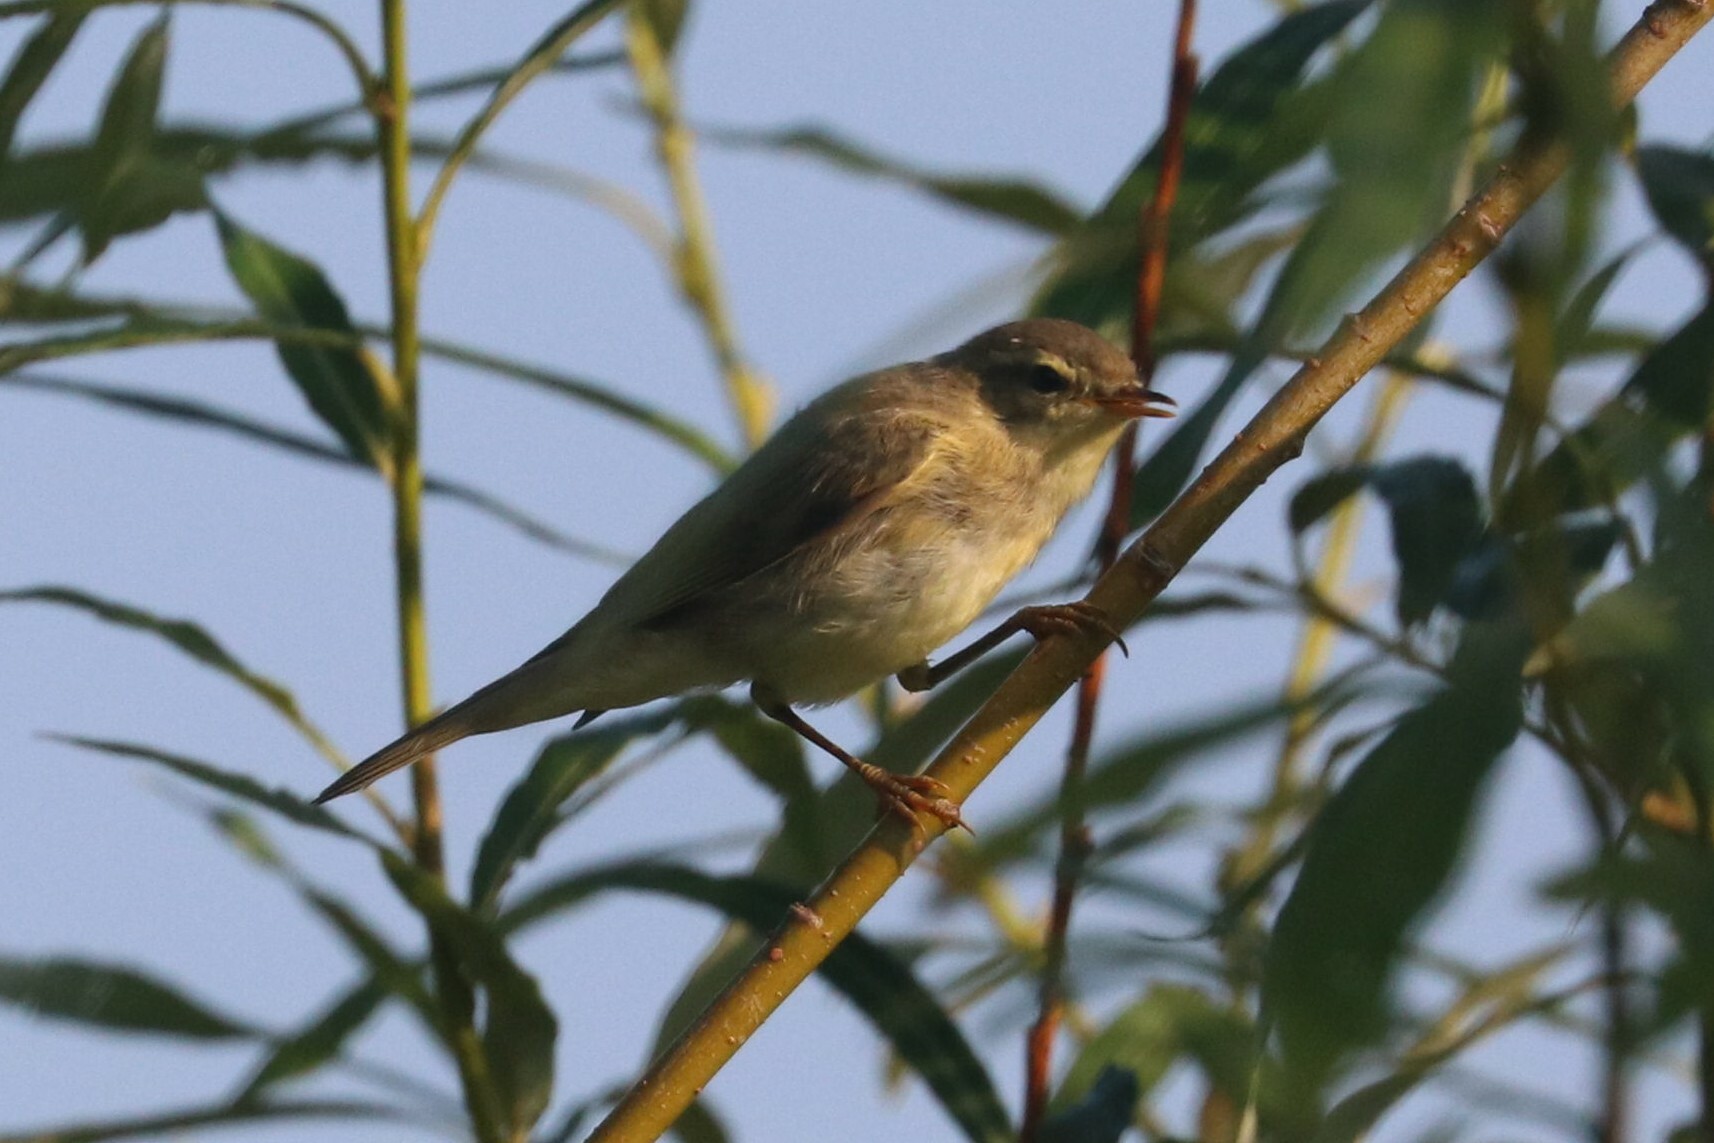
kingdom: Animalia
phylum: Chordata
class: Aves
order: Passeriformes
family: Phylloscopidae
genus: Phylloscopus
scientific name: Phylloscopus trochilus
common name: Willow warbler
